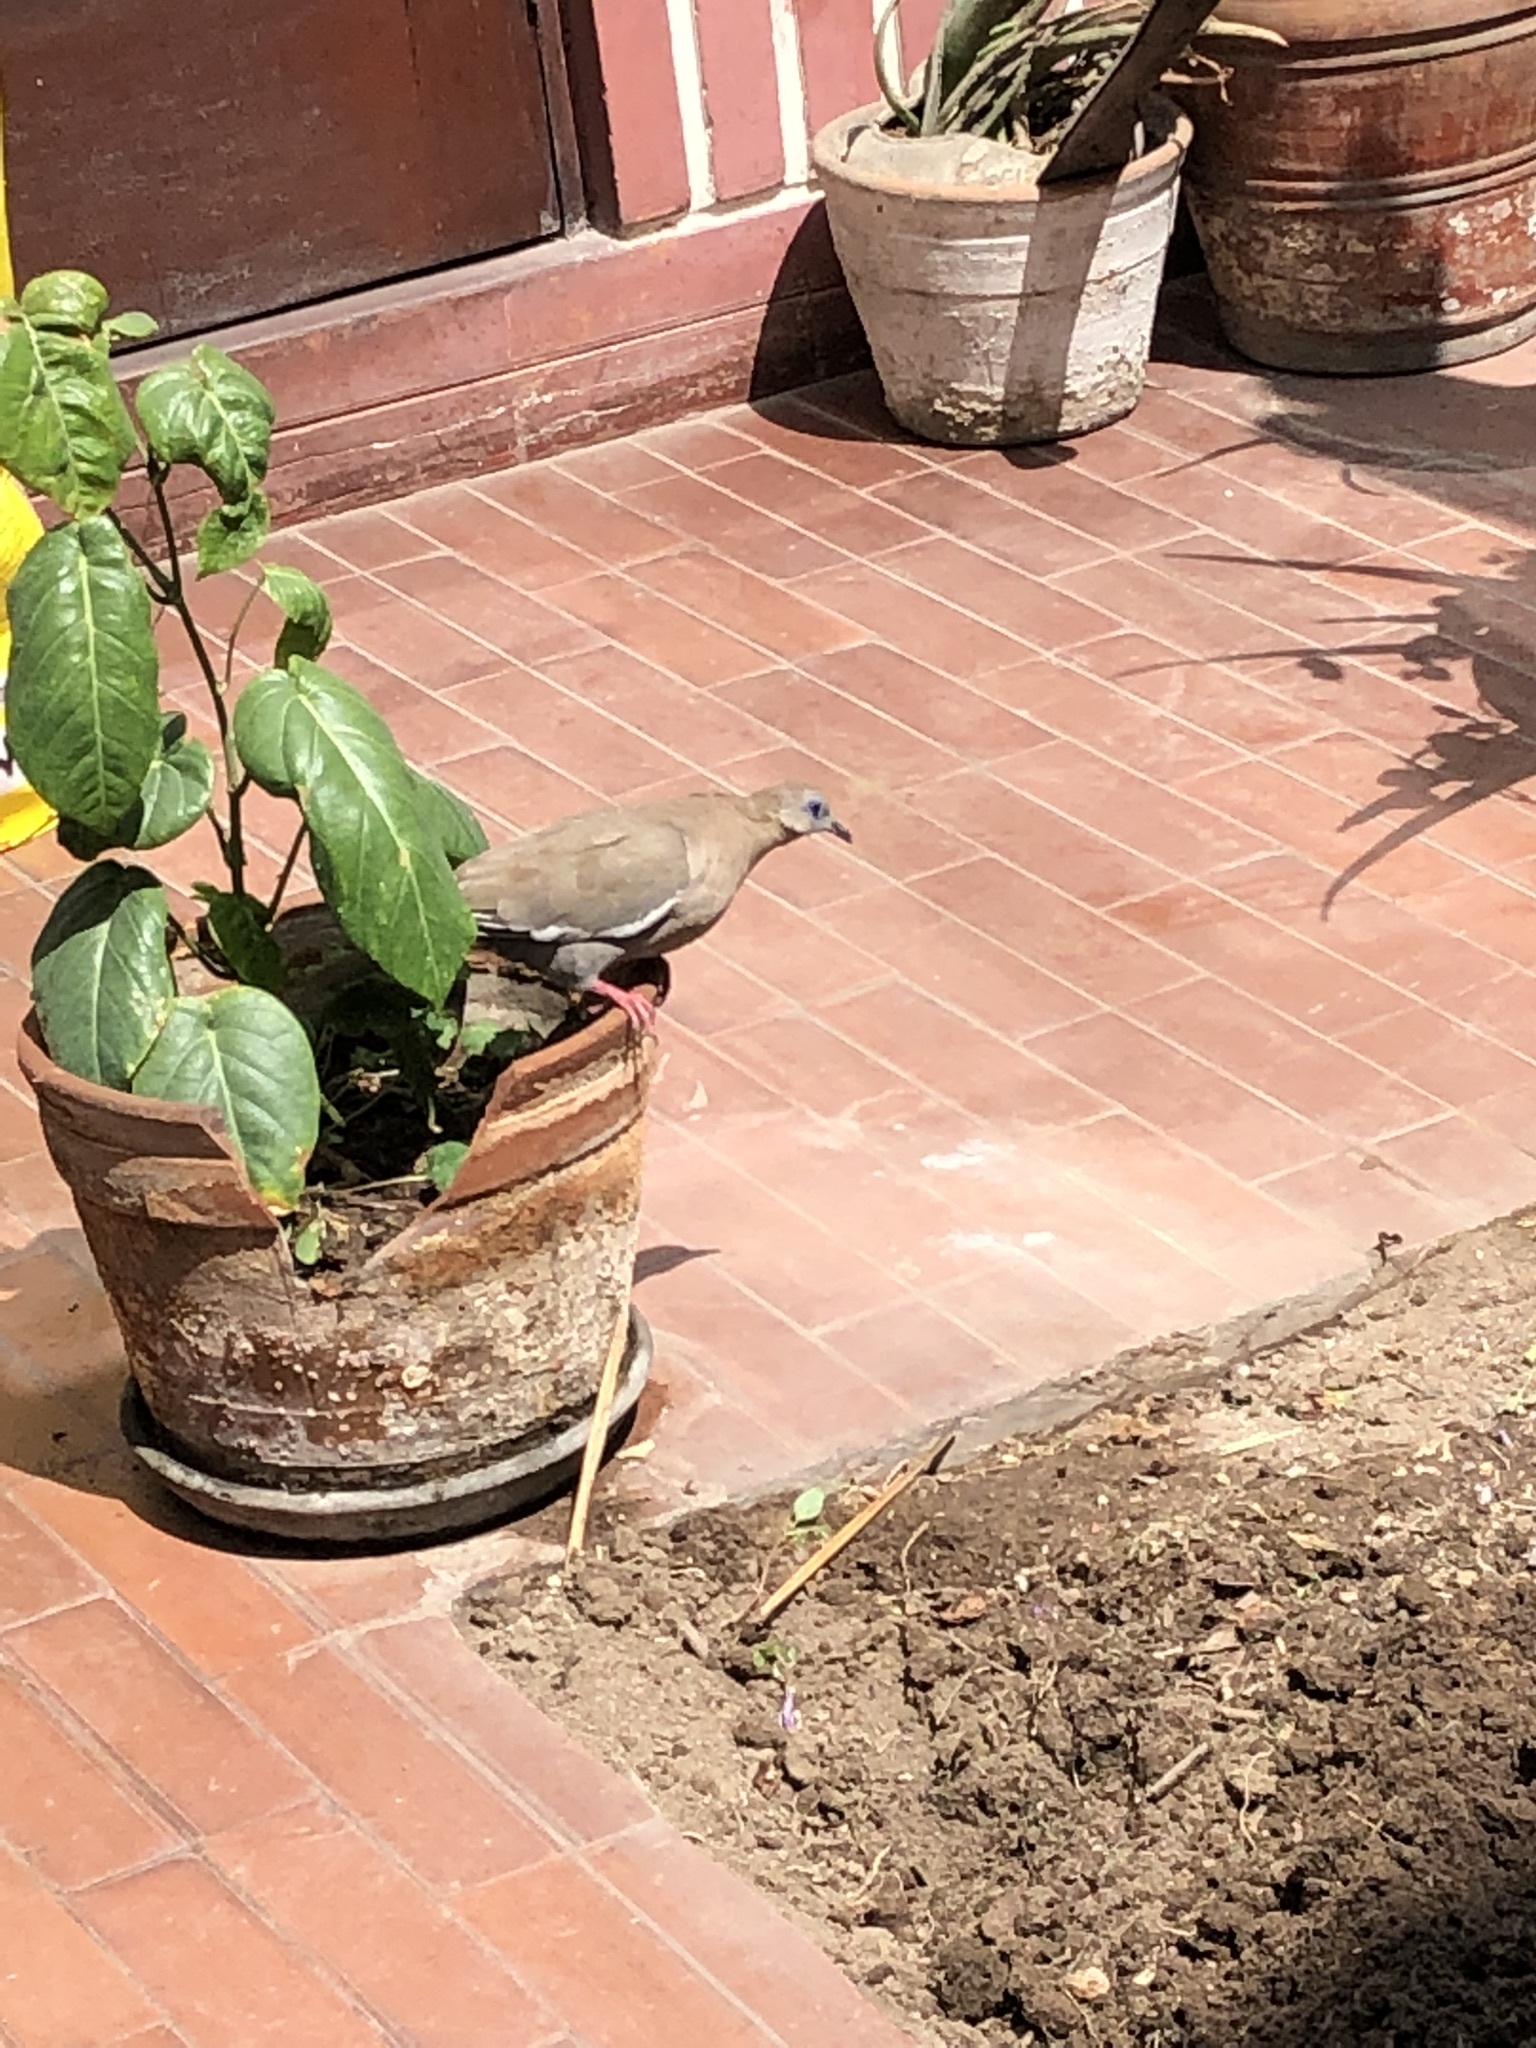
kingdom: Animalia
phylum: Chordata
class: Aves
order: Columbiformes
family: Columbidae
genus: Zenaida
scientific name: Zenaida meloda
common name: West peruvian dove
